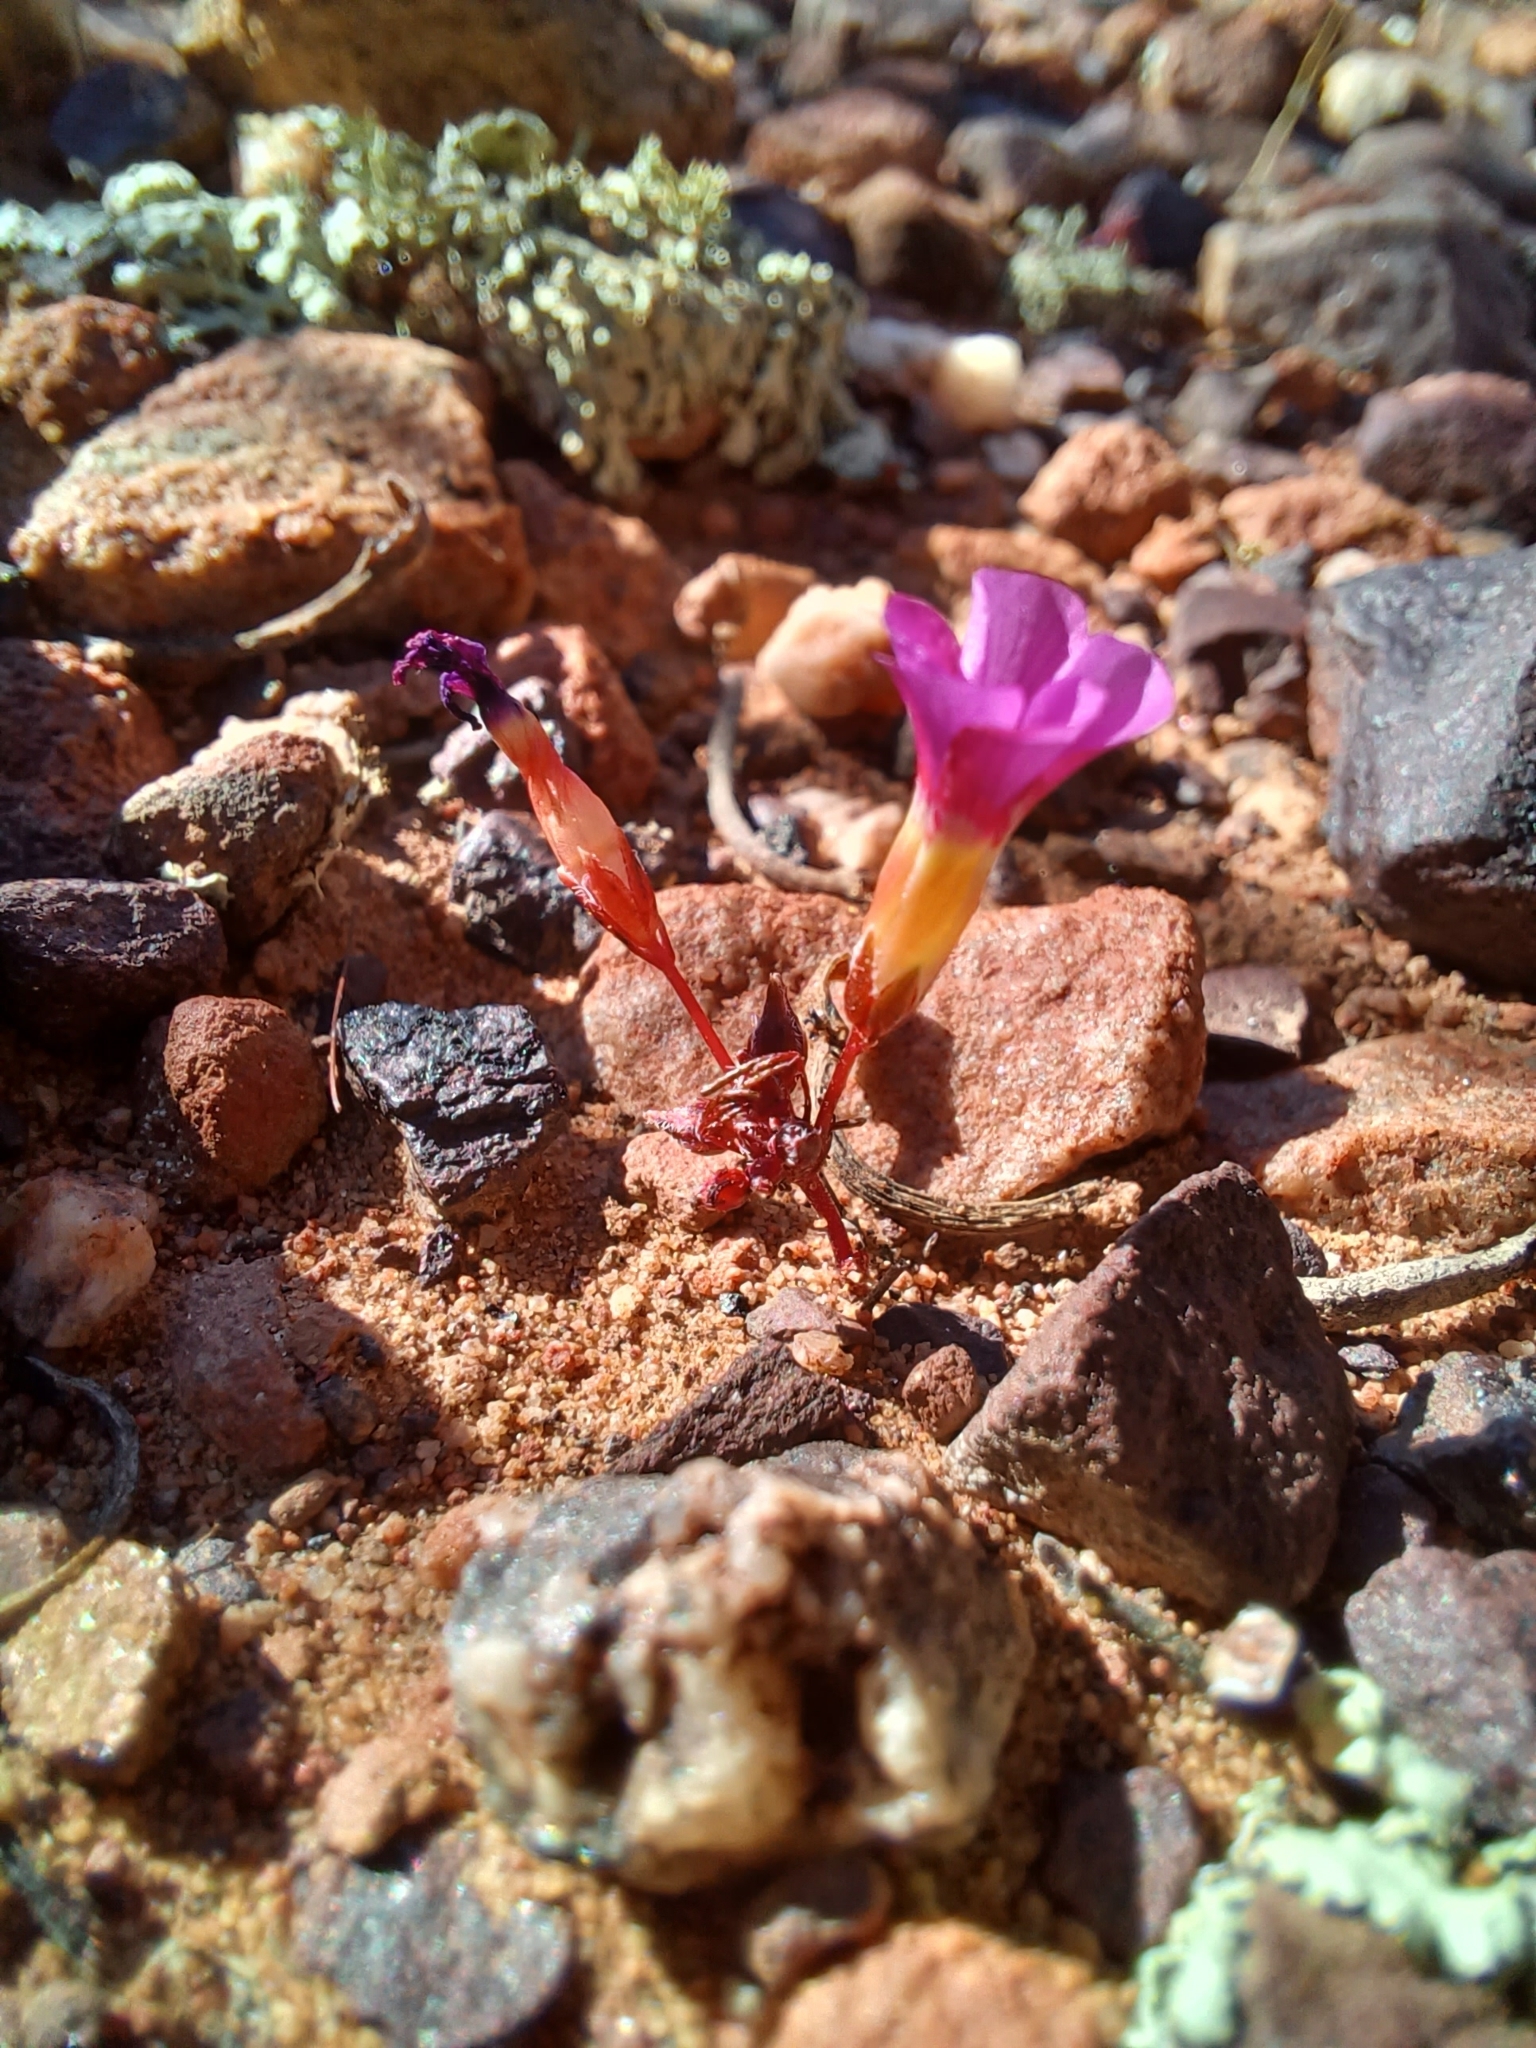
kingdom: Plantae
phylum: Tracheophyta
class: Magnoliopsida
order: Oxalidales
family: Oxalidaceae
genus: Oxalis
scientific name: Oxalis leptogramma
